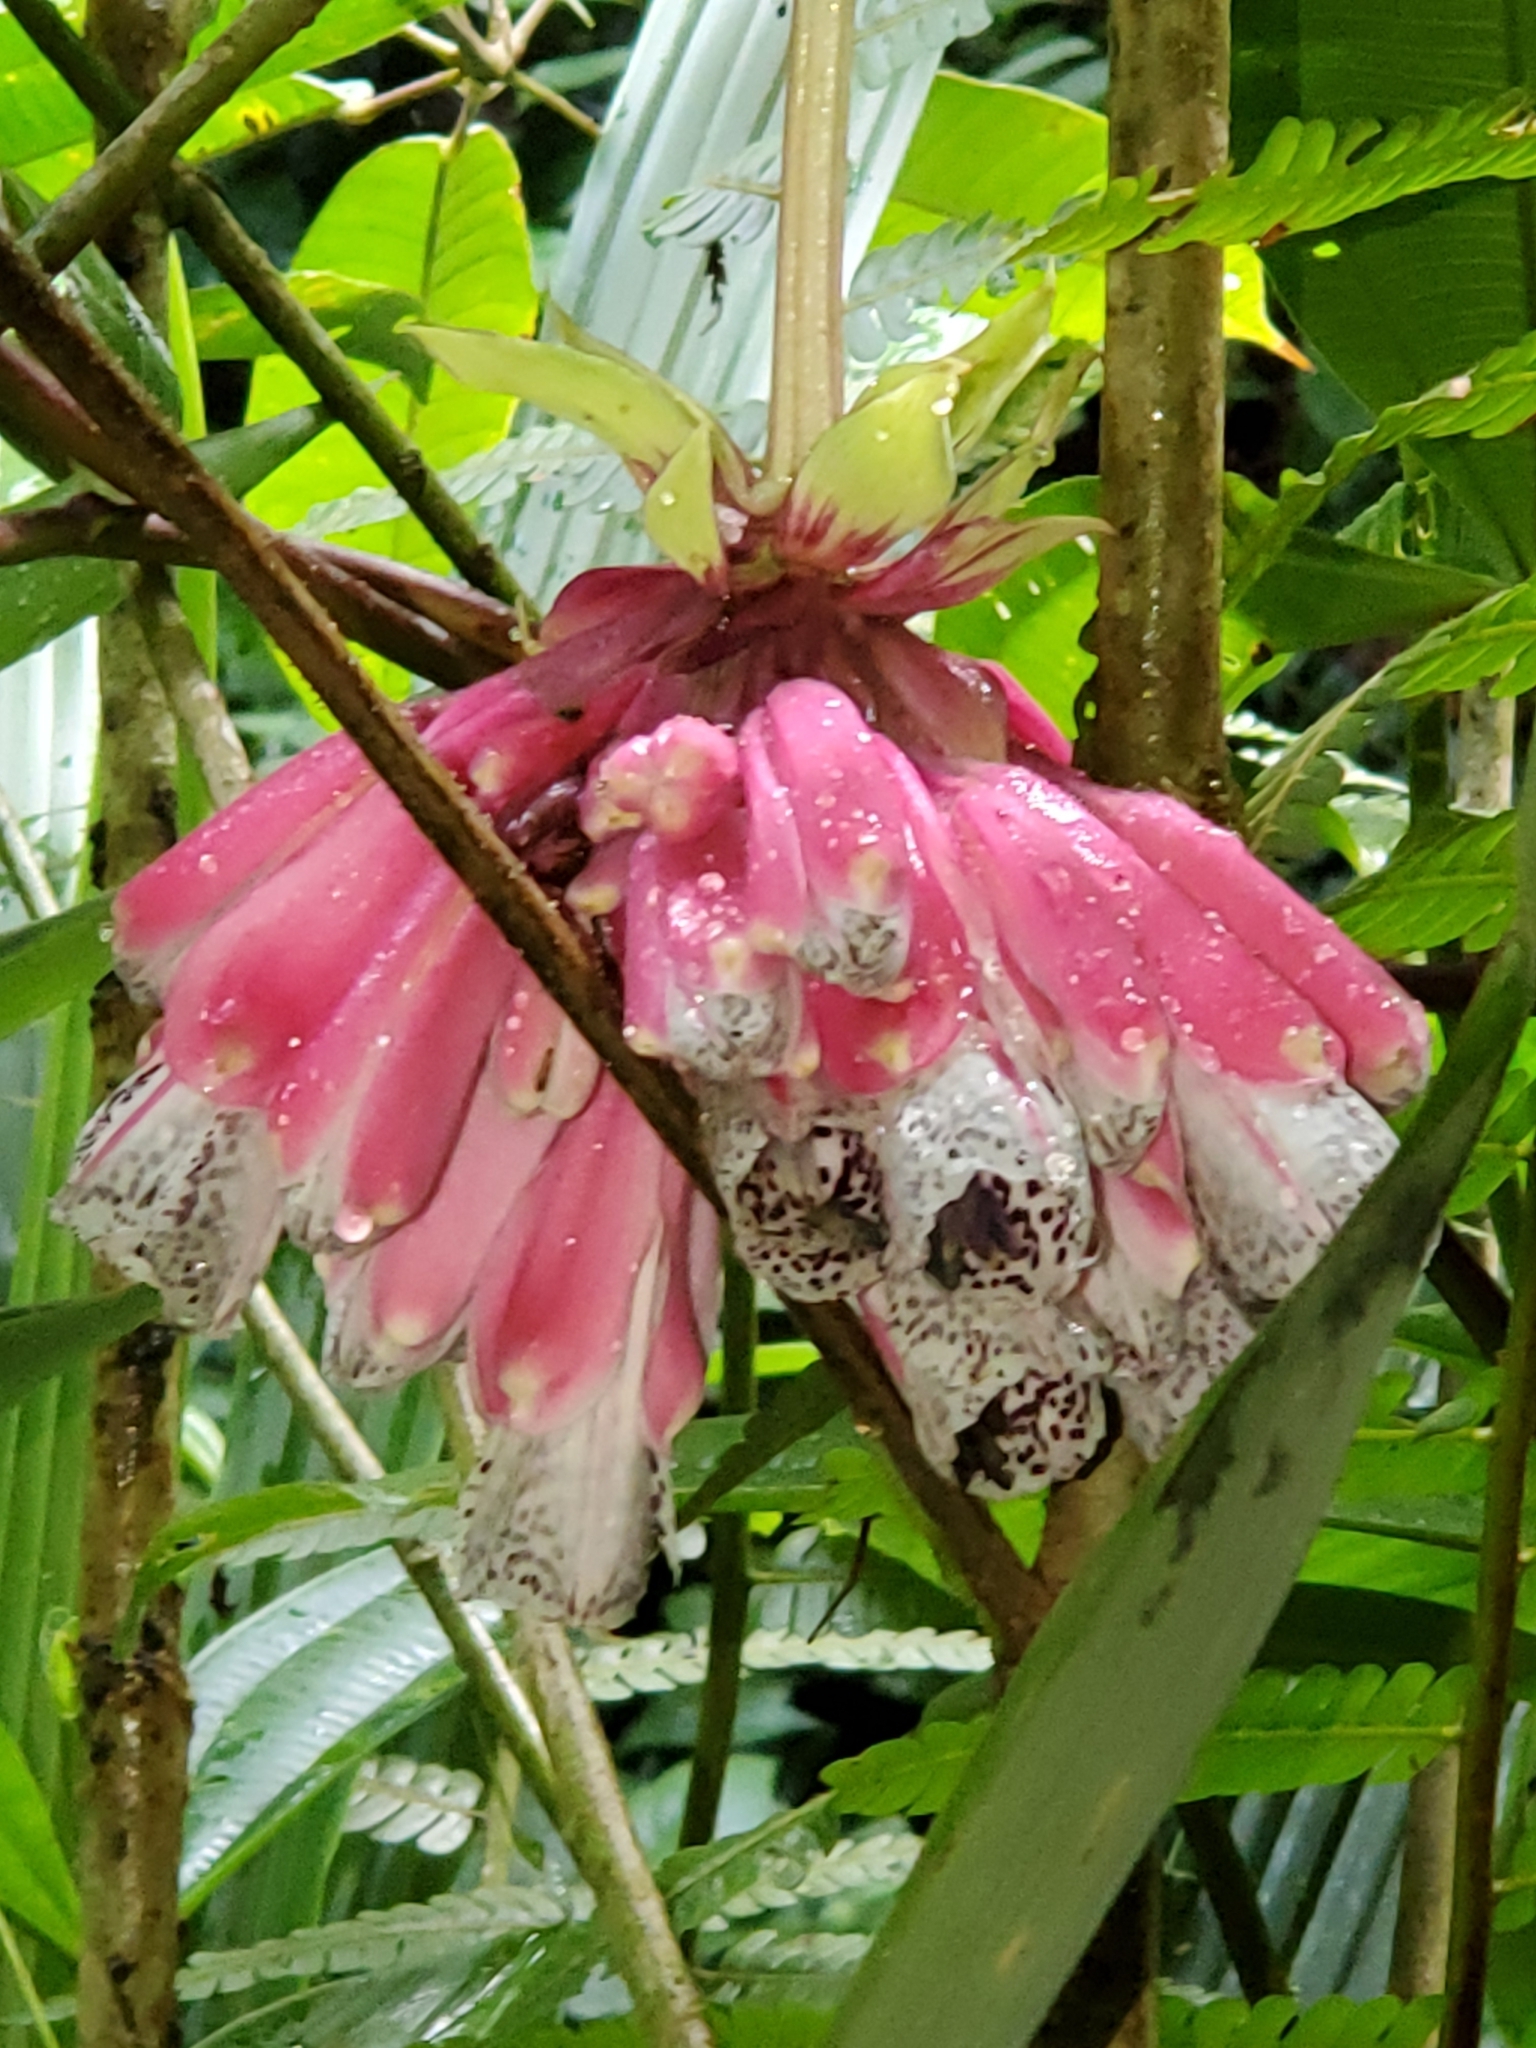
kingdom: Plantae
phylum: Tracheophyta
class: Liliopsida
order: Liliales
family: Alstroemeriaceae
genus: Bomarea
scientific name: Bomarea pardina
